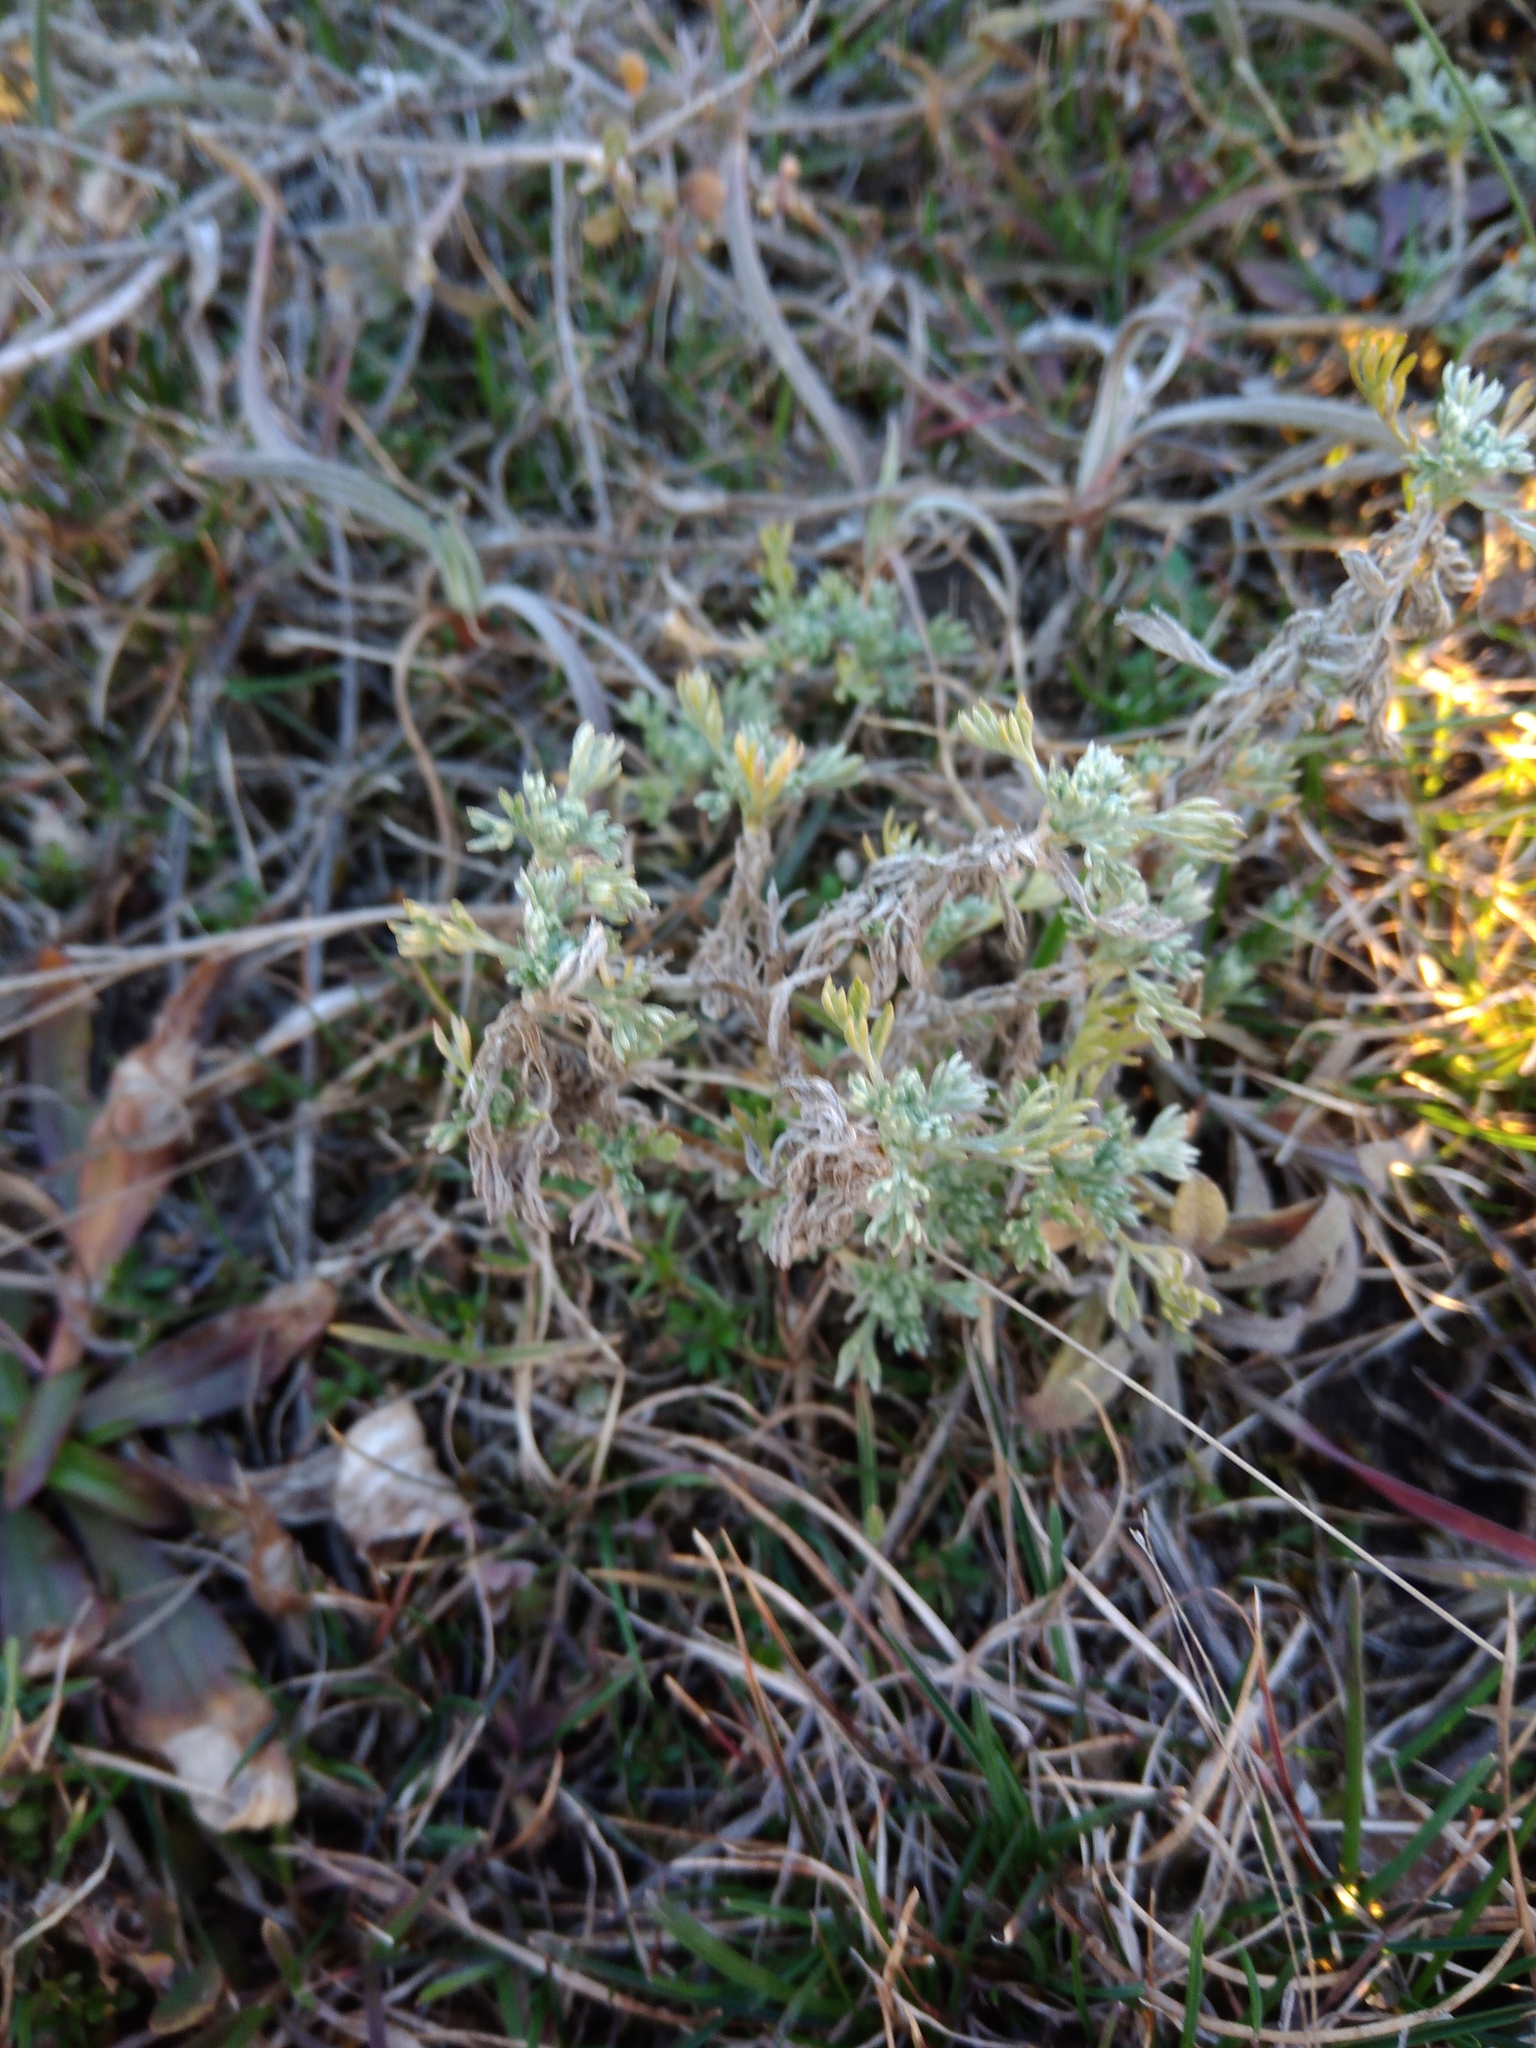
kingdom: Plantae
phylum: Tracheophyta
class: Magnoliopsida
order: Asterales
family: Asteraceae
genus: Artemisia
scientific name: Artemisia austriaca
